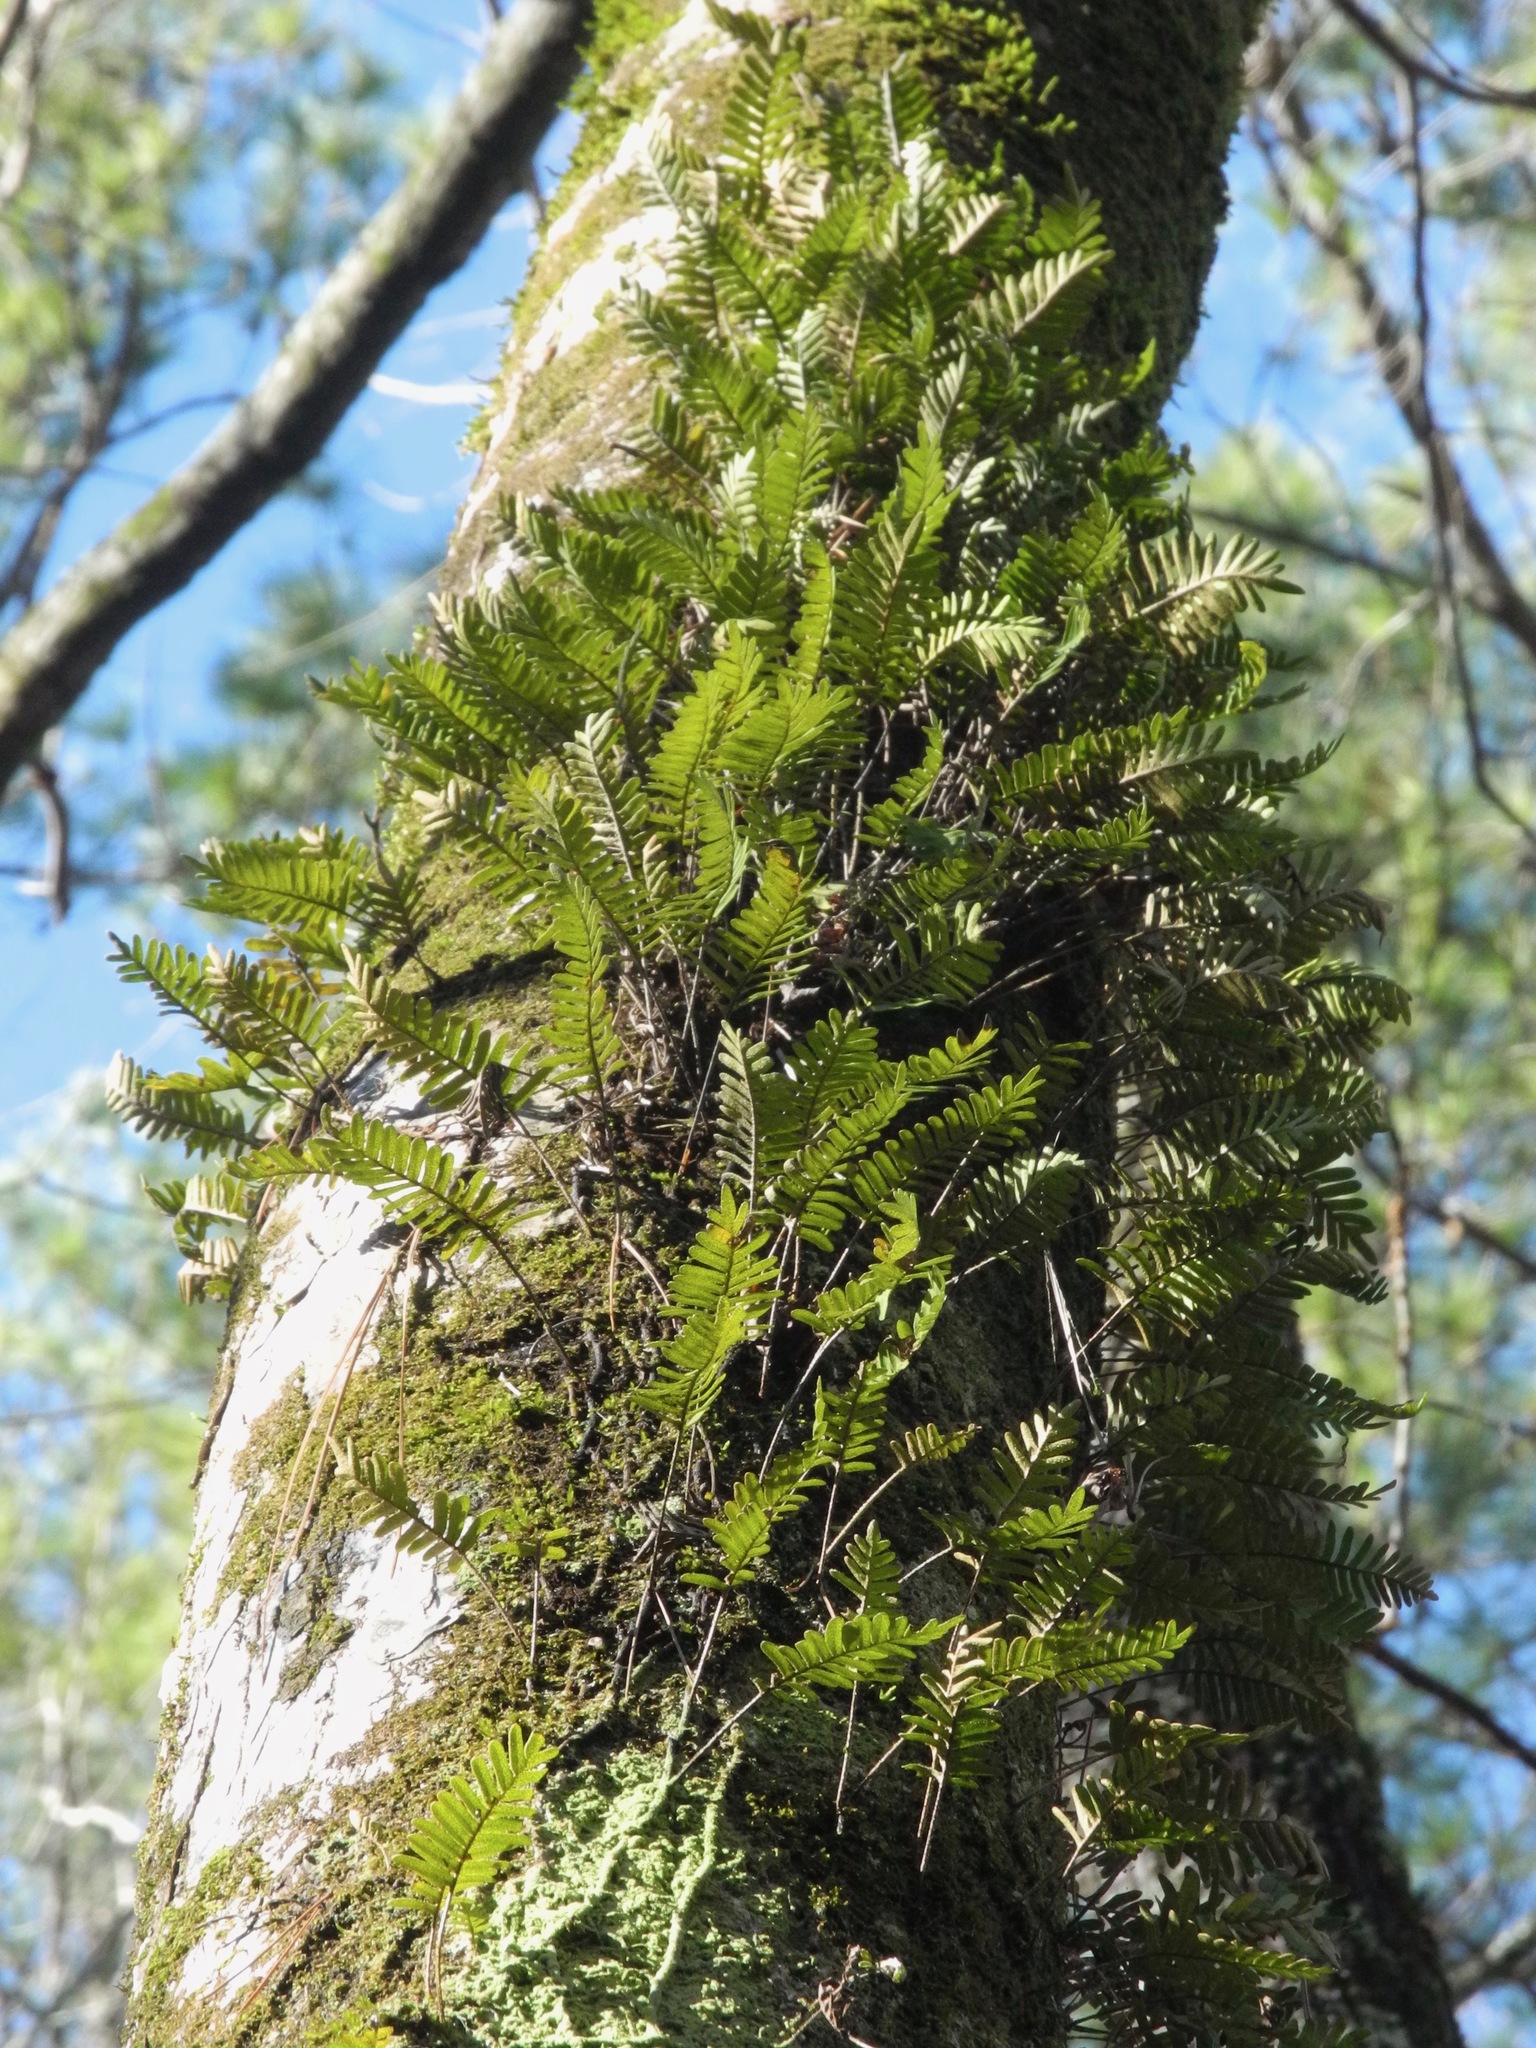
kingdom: Plantae
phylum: Tracheophyta
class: Polypodiopsida
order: Polypodiales
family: Polypodiaceae
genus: Pleopeltis
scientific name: Pleopeltis michauxiana
